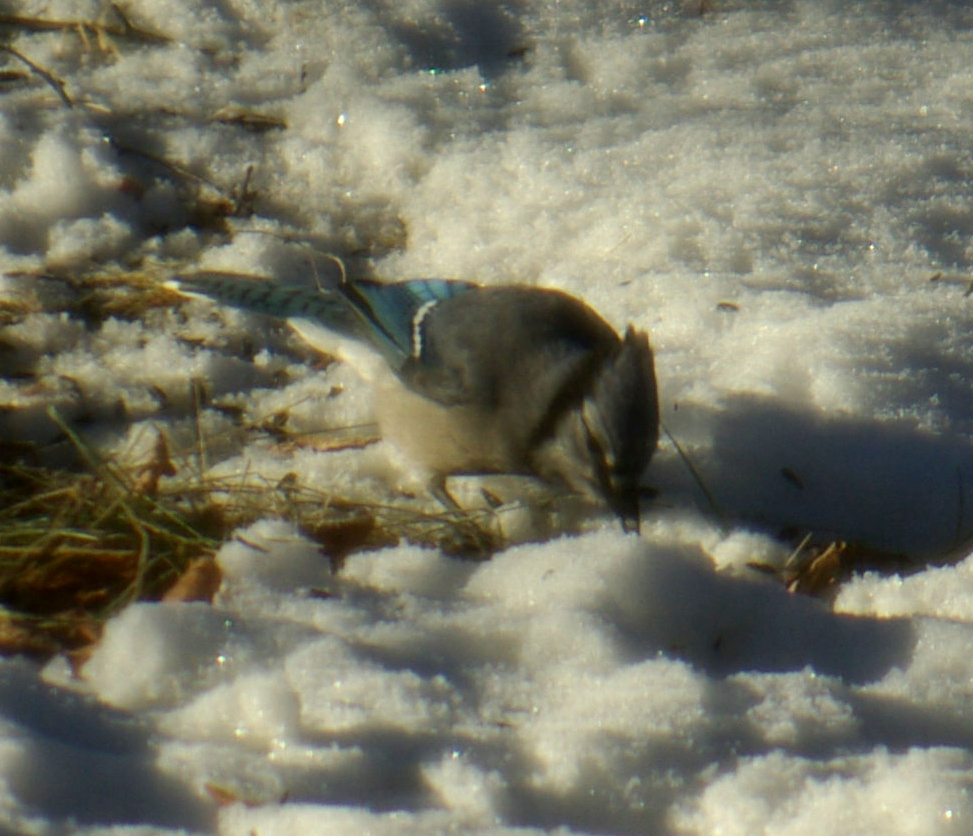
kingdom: Animalia
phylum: Chordata
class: Aves
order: Passeriformes
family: Corvidae
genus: Cyanocitta
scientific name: Cyanocitta cristata
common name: Blue jay
